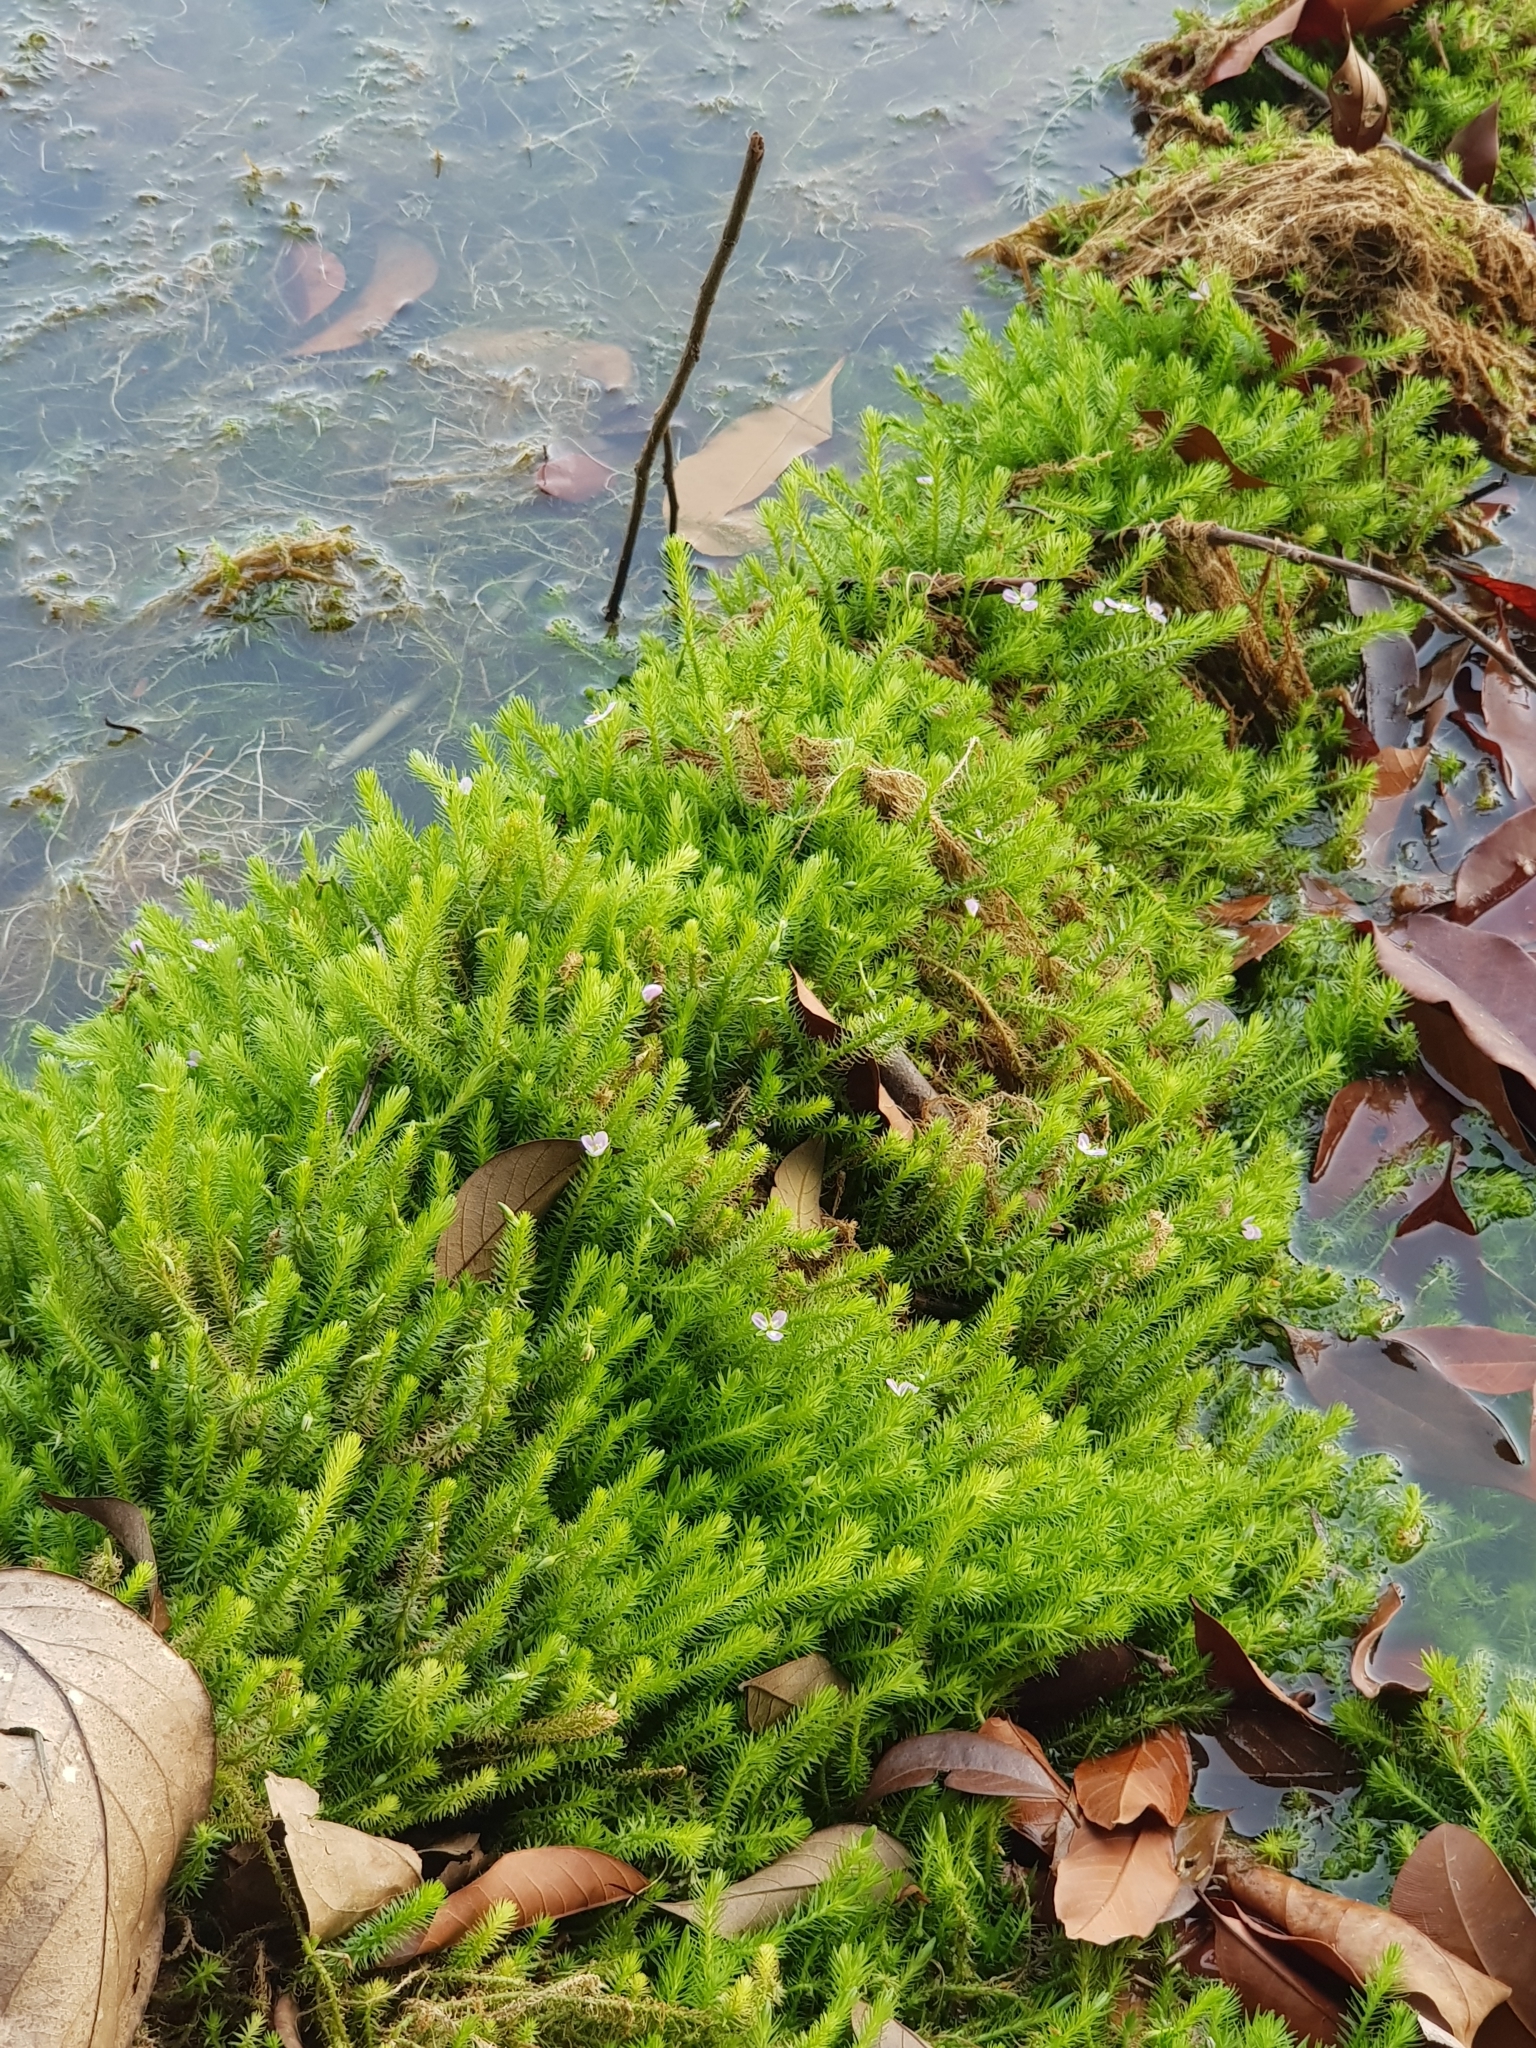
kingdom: Plantae
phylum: Tracheophyta
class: Liliopsida
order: Poales
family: Mayacaceae
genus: Mayaca
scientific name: Mayaca fluviatilis
